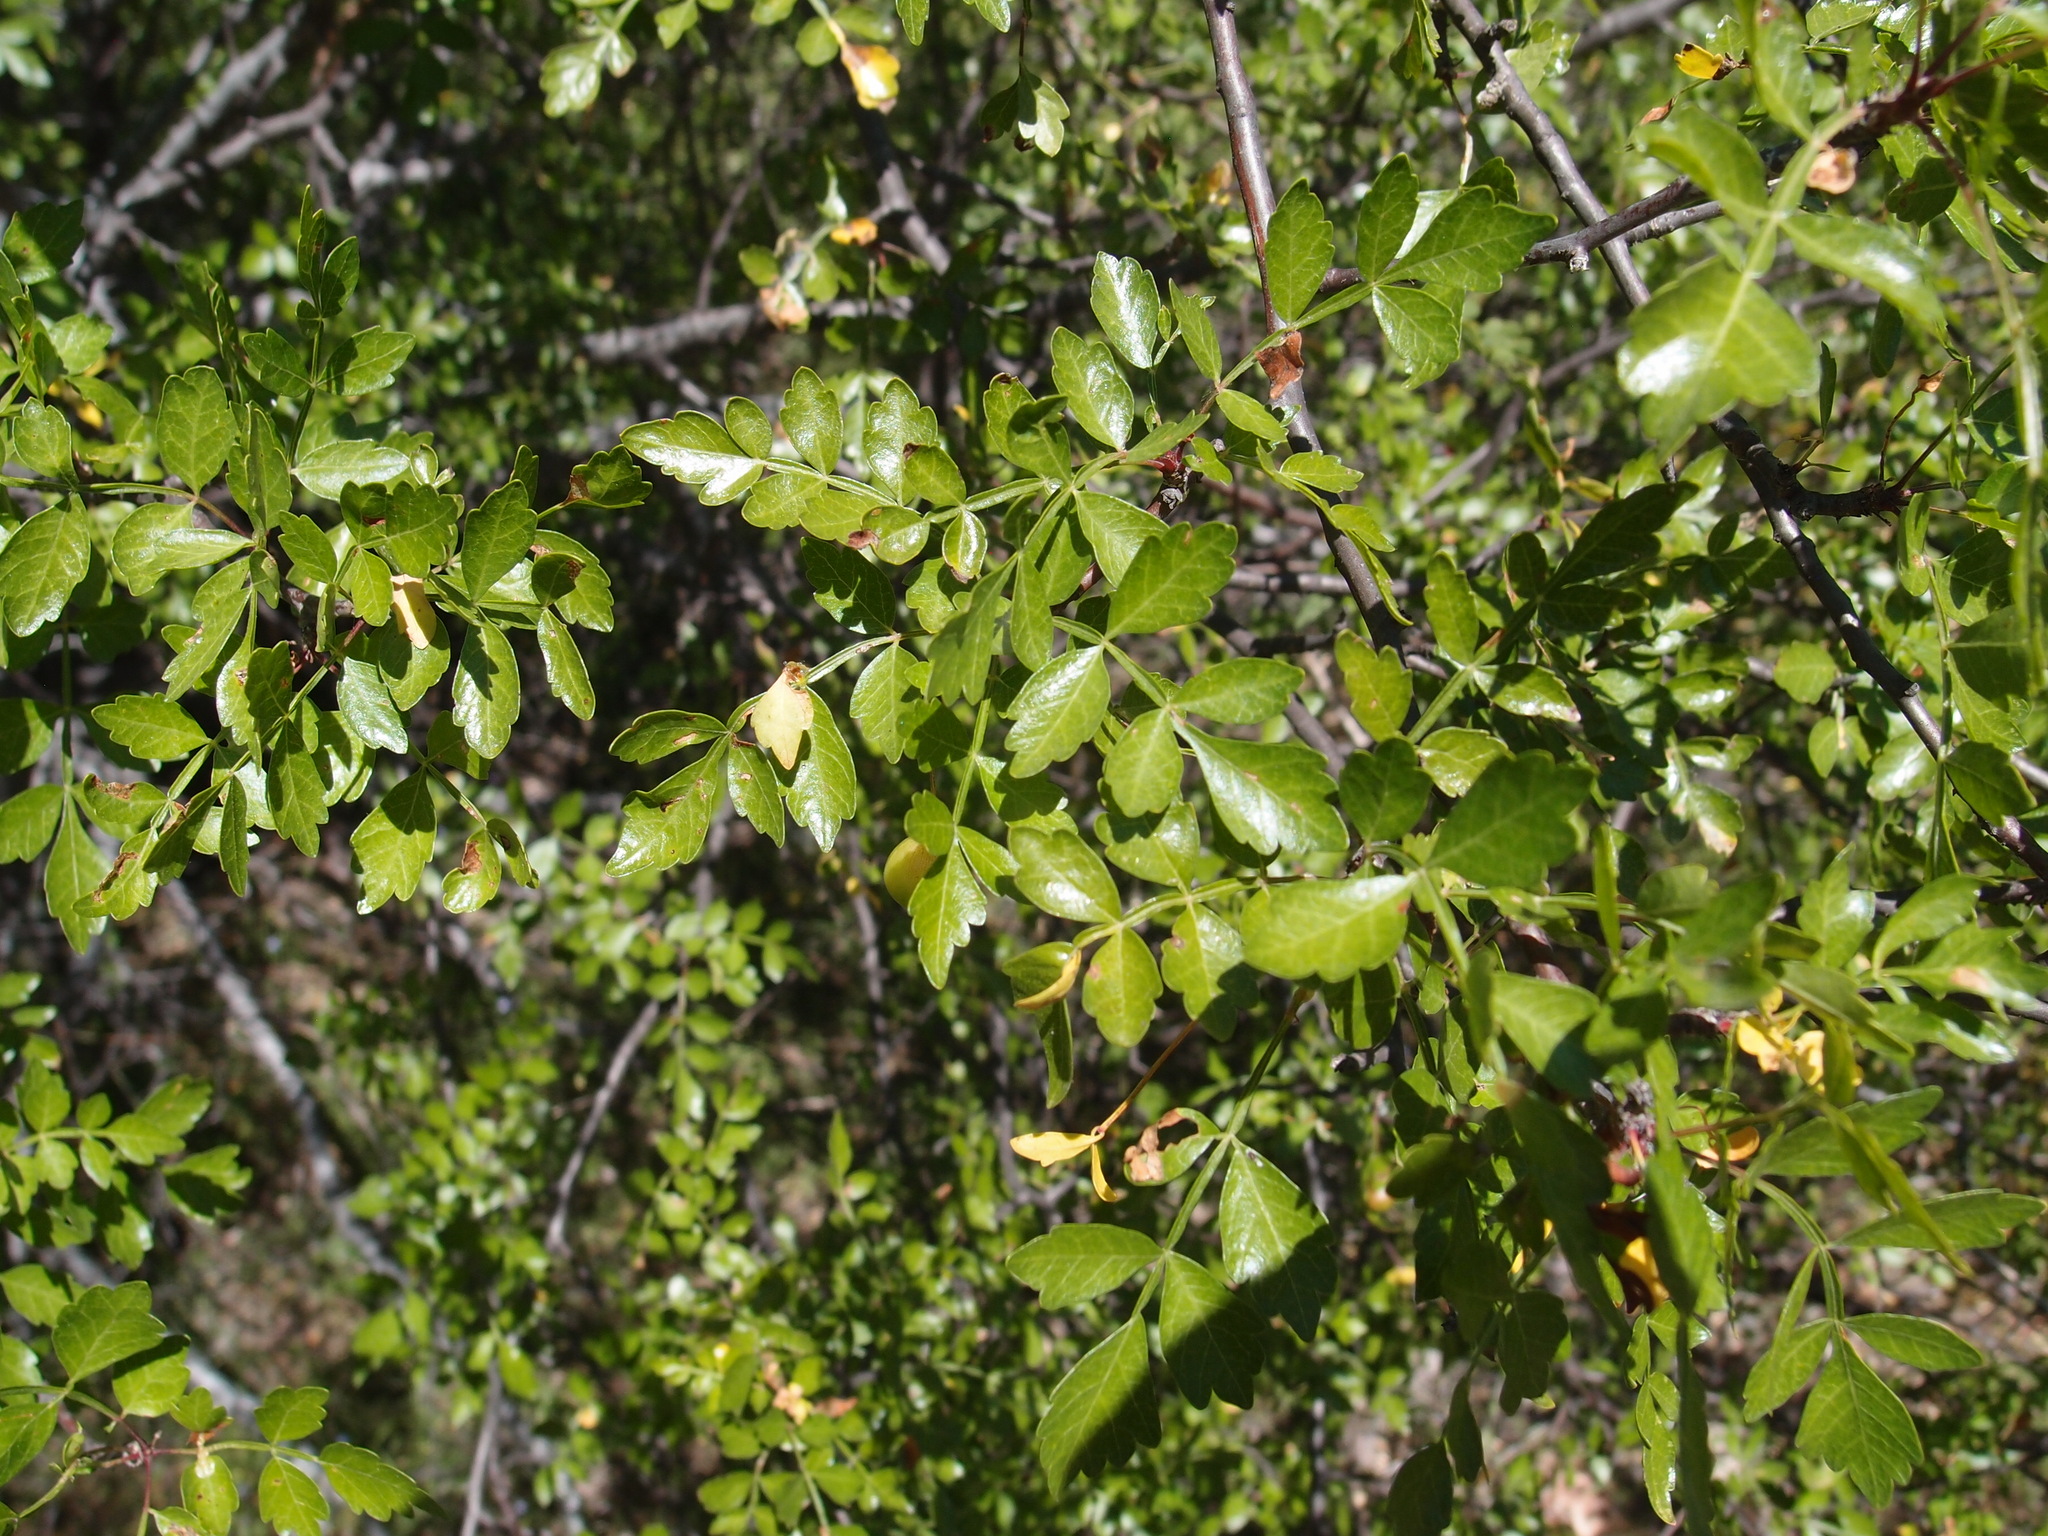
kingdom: Plantae
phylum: Tracheophyta
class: Magnoliopsida
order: Sapindales
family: Burseraceae
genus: Bursera
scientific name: Bursera laxiflora
